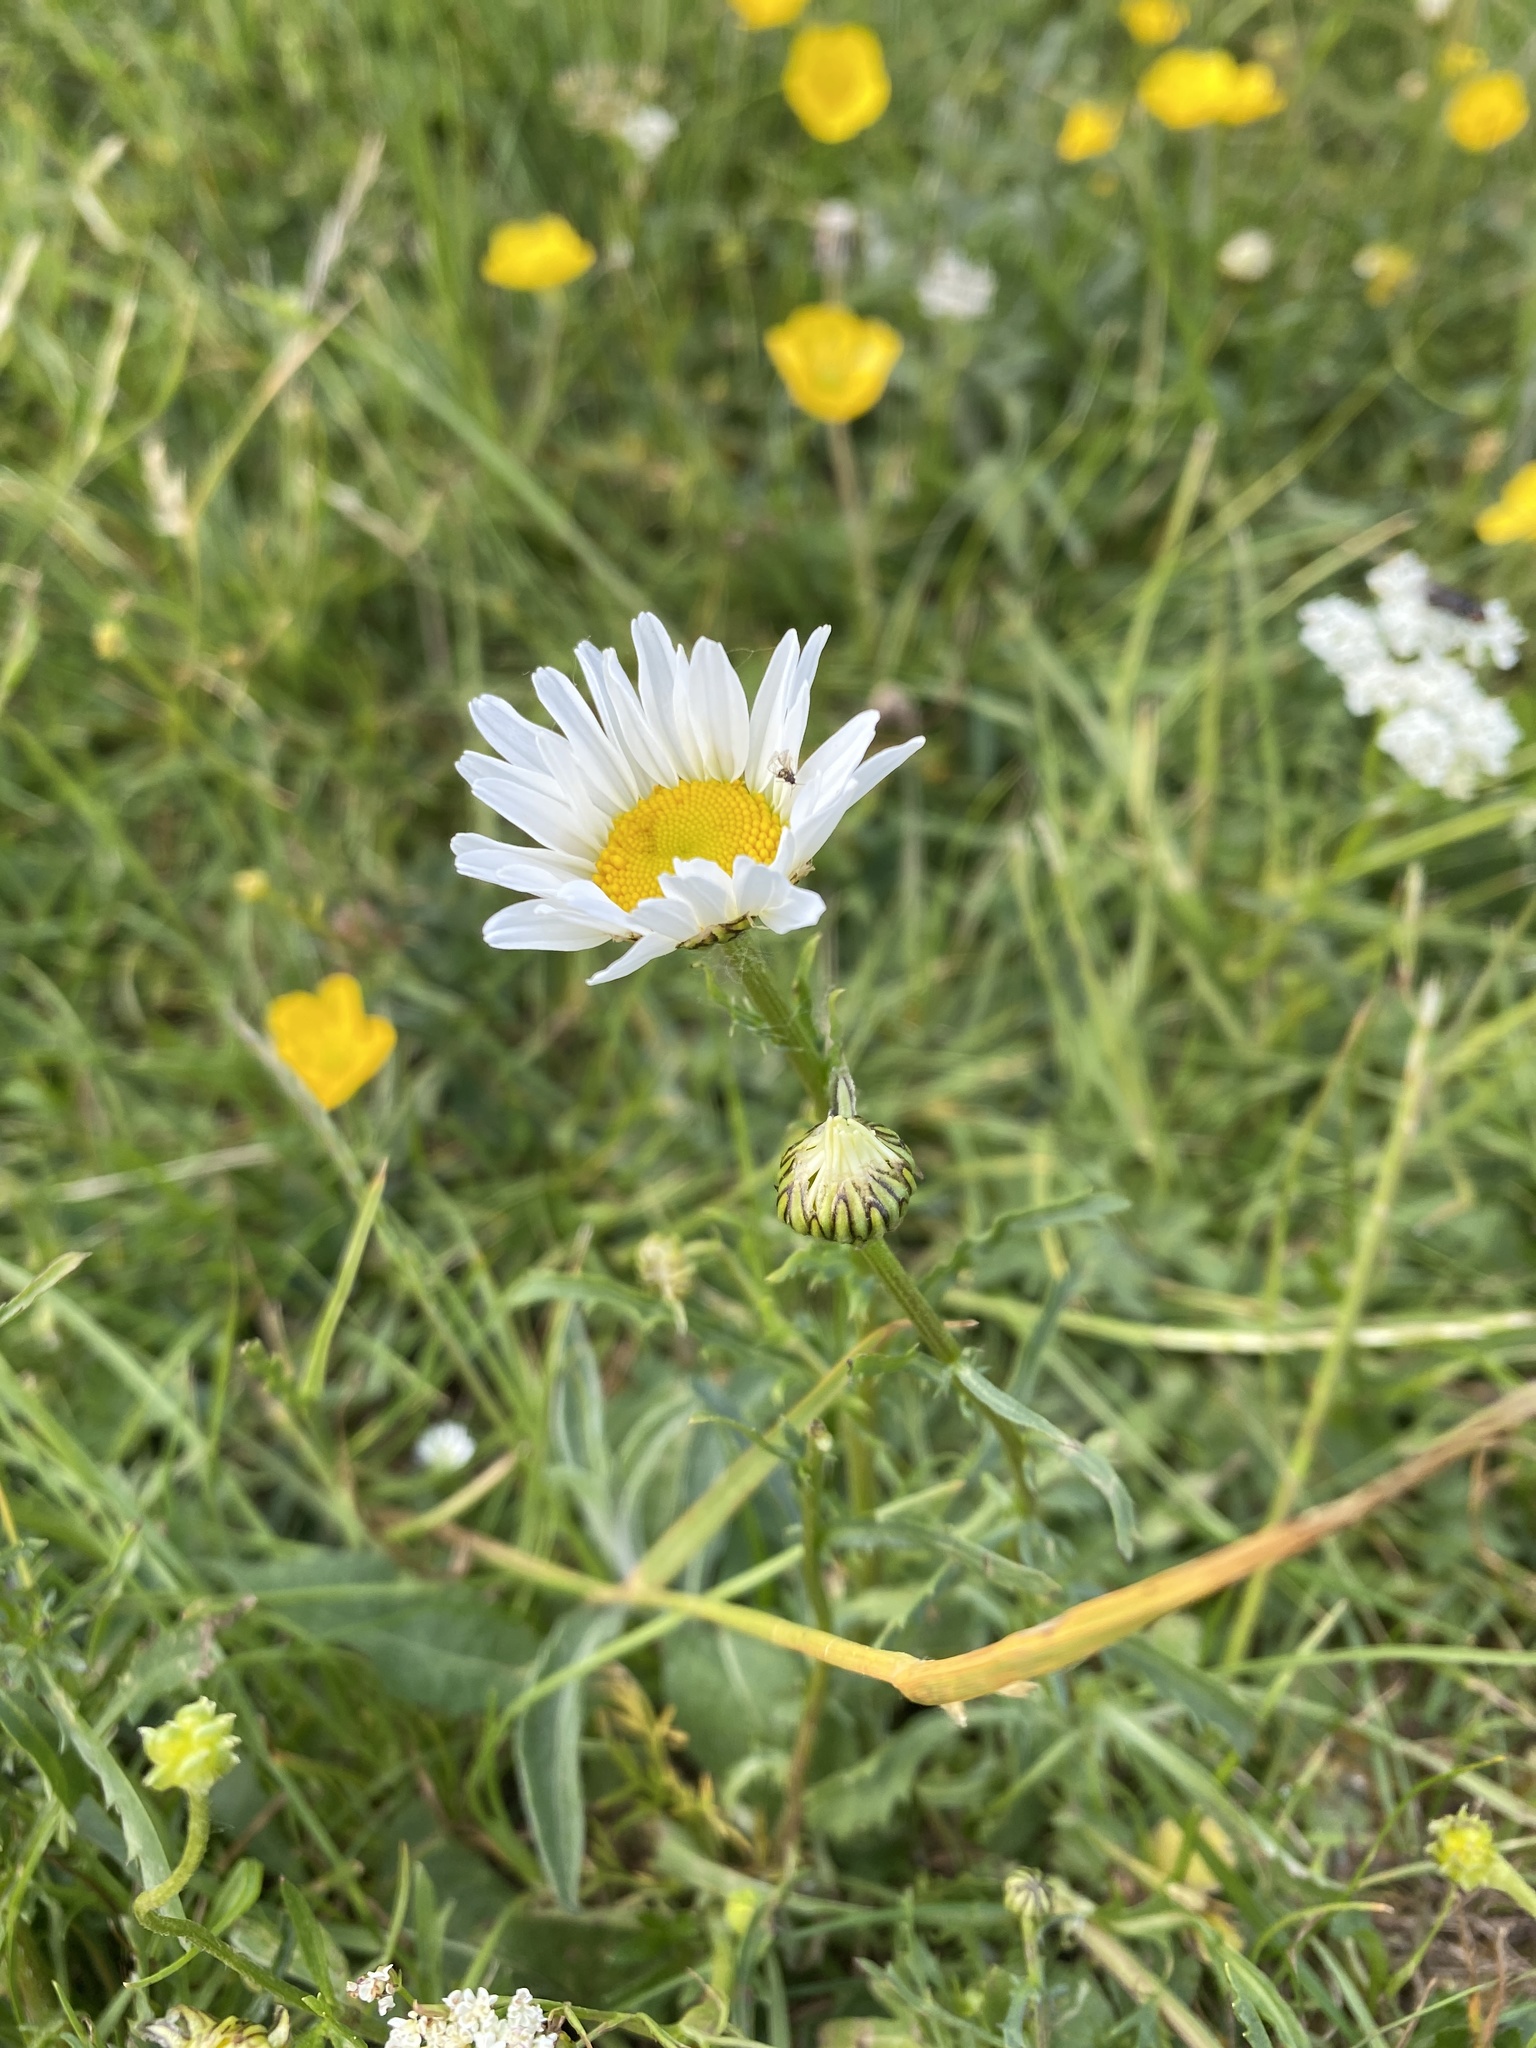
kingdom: Plantae
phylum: Tracheophyta
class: Magnoliopsida
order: Asterales
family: Asteraceae
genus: Leucanthemum
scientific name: Leucanthemum vulgare
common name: Oxeye daisy
